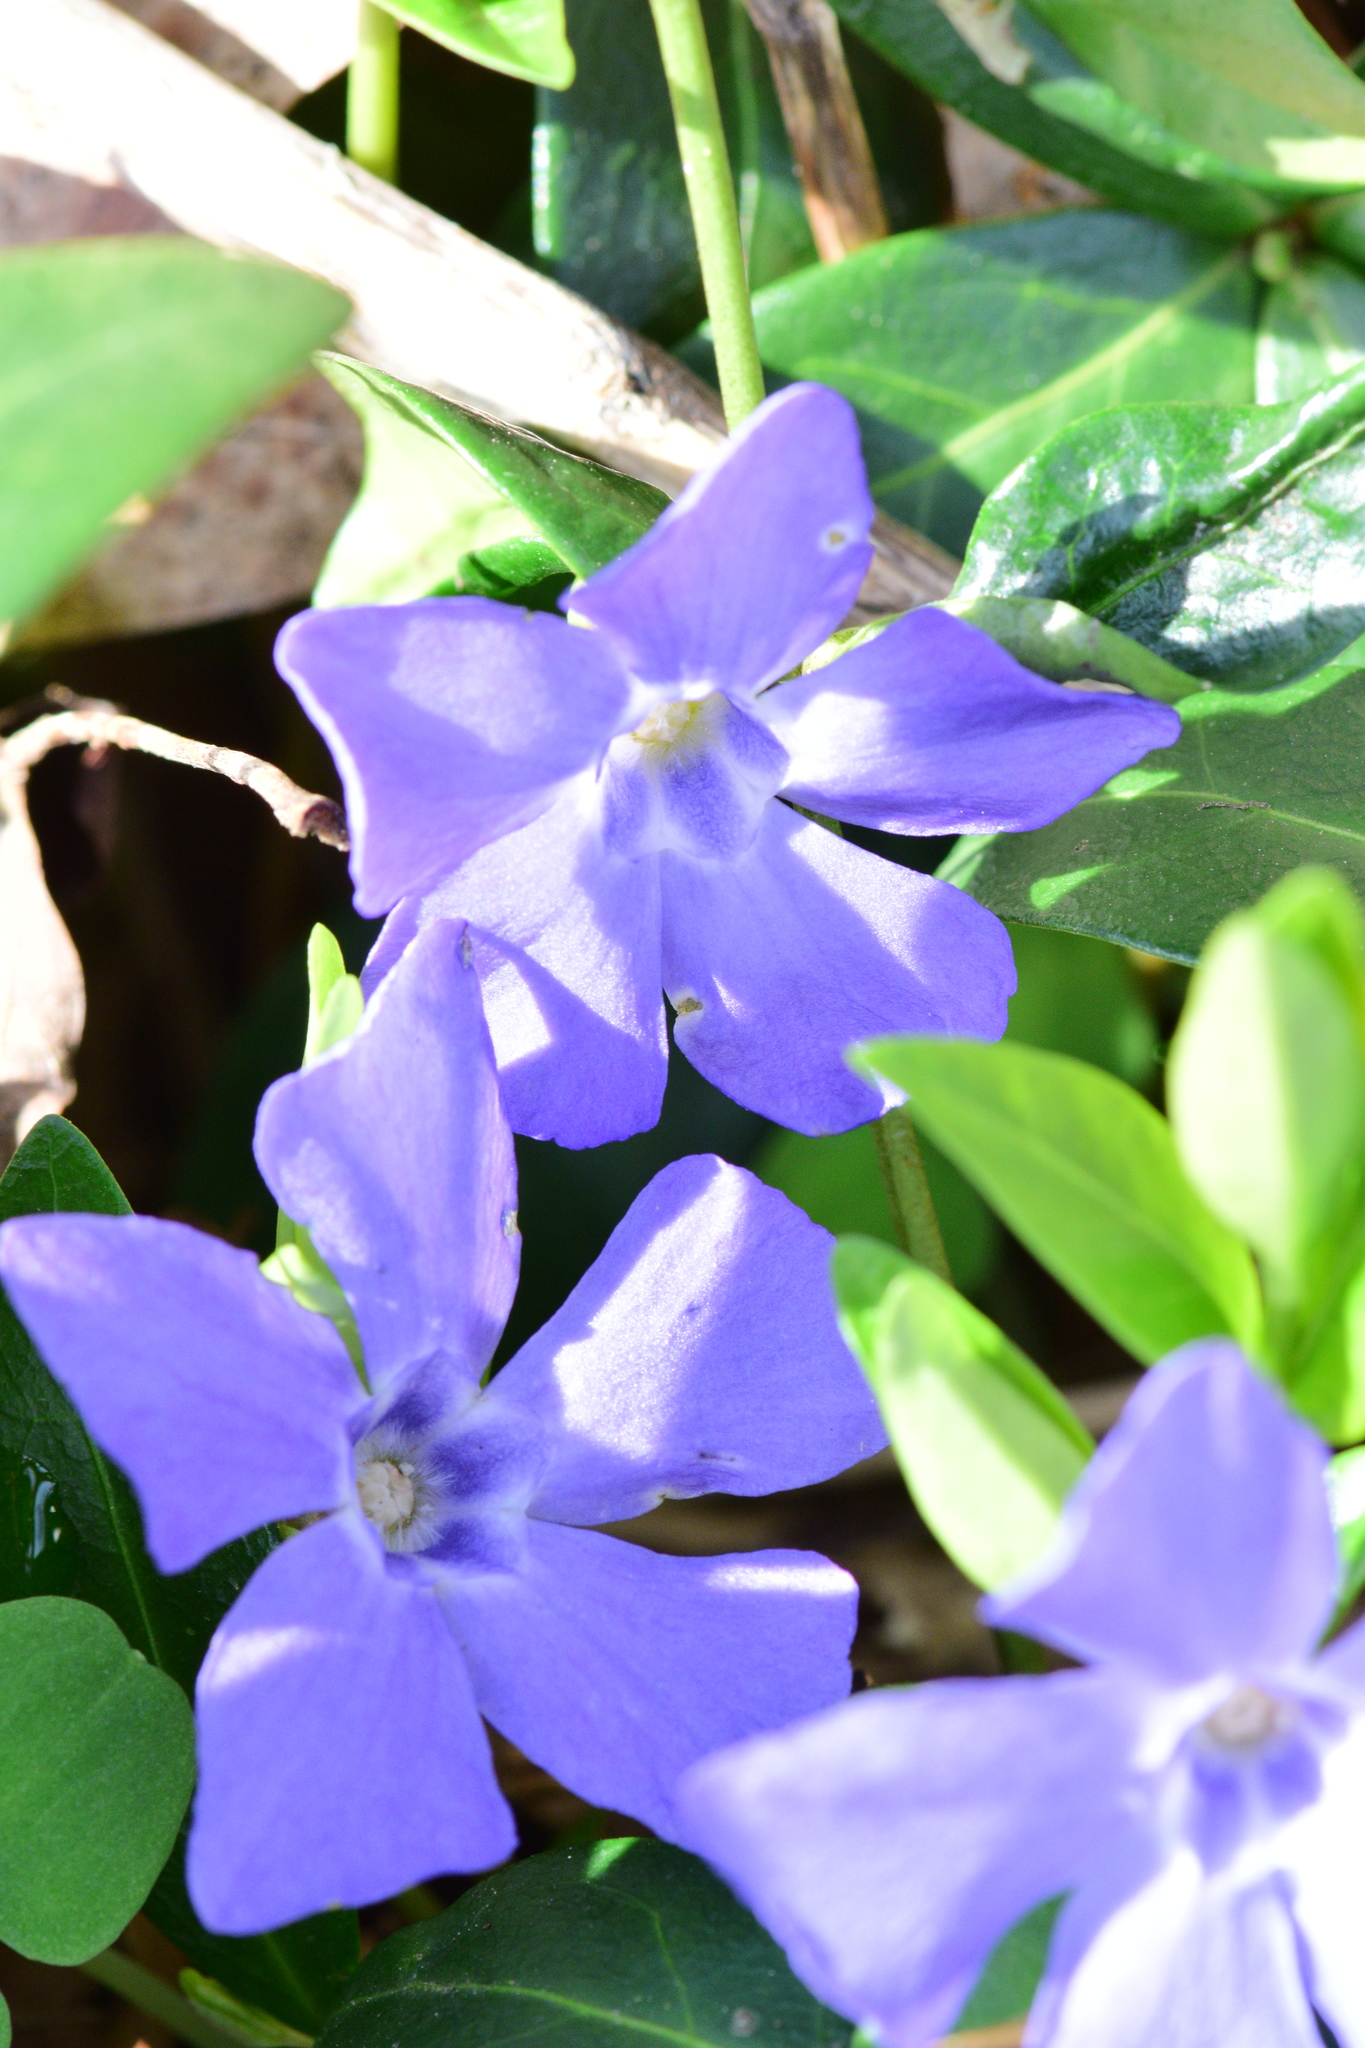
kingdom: Plantae
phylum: Tracheophyta
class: Magnoliopsida
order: Gentianales
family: Apocynaceae
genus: Vinca
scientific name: Vinca minor
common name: Lesser periwinkle
